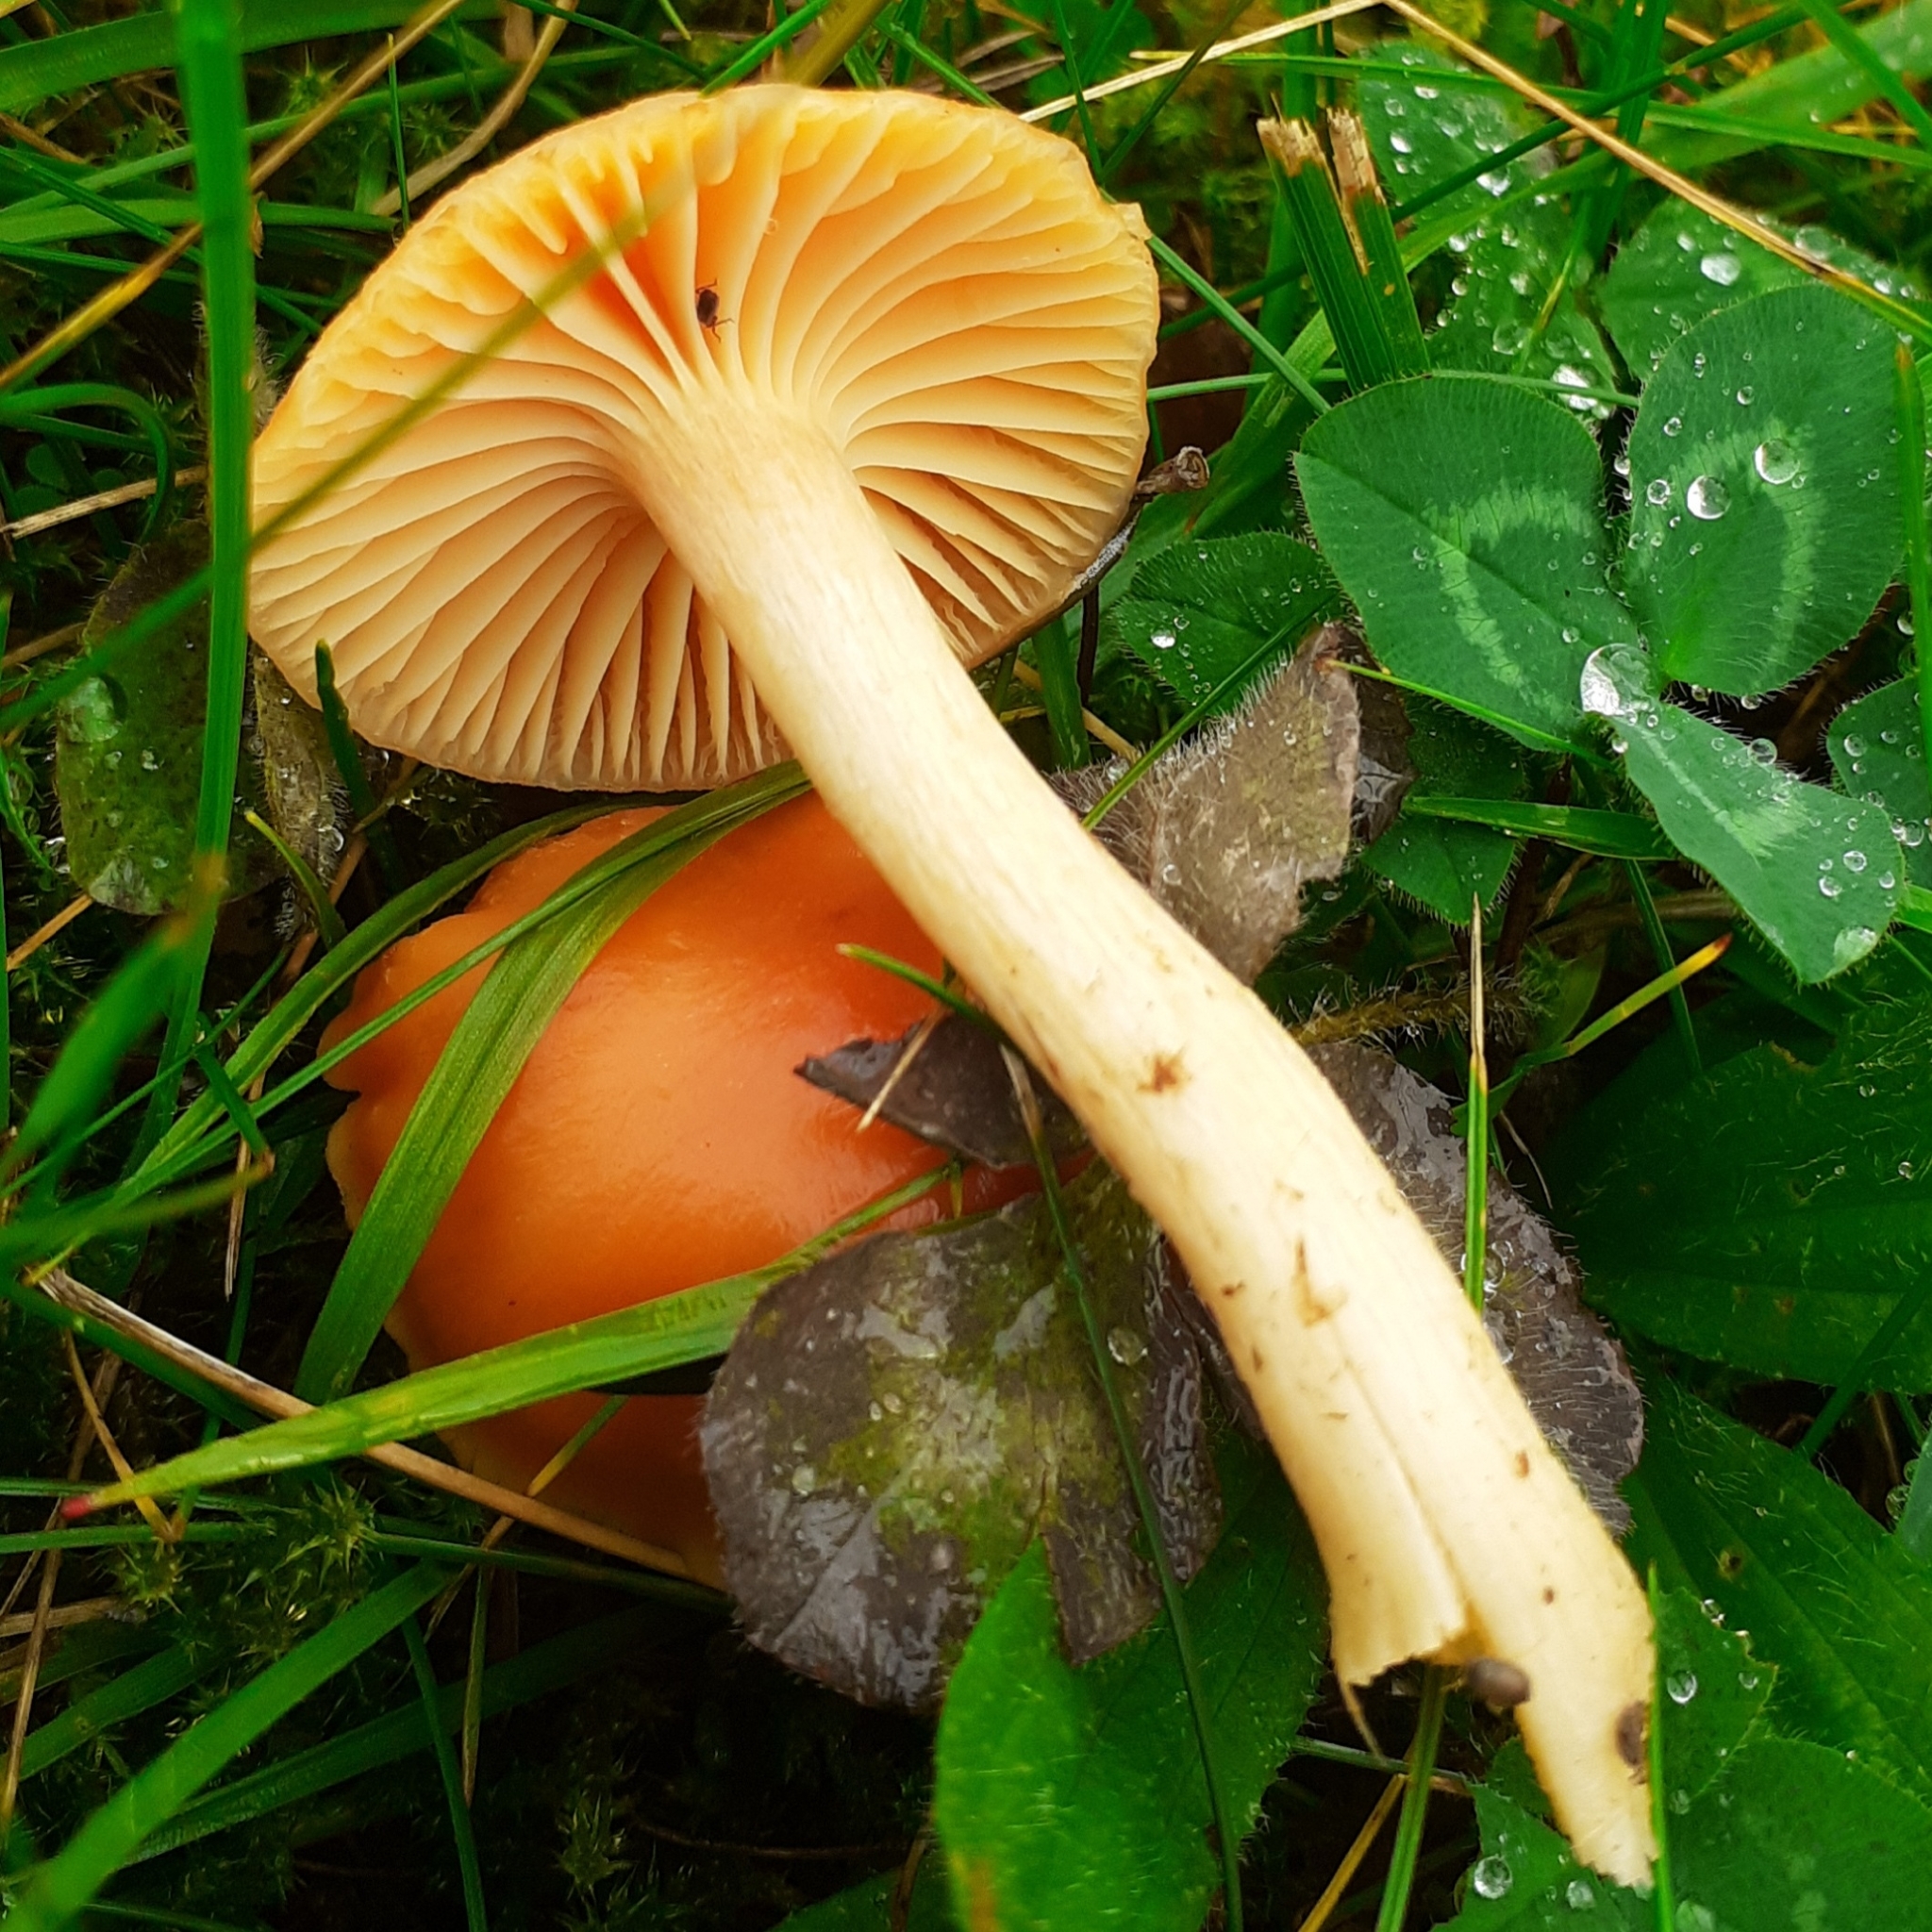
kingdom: Fungi
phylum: Basidiomycota
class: Agaricomycetes
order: Agaricales
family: Hygrophoraceae
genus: Cuphophyllus
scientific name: Cuphophyllus pratensis
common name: Meadow waxcap
